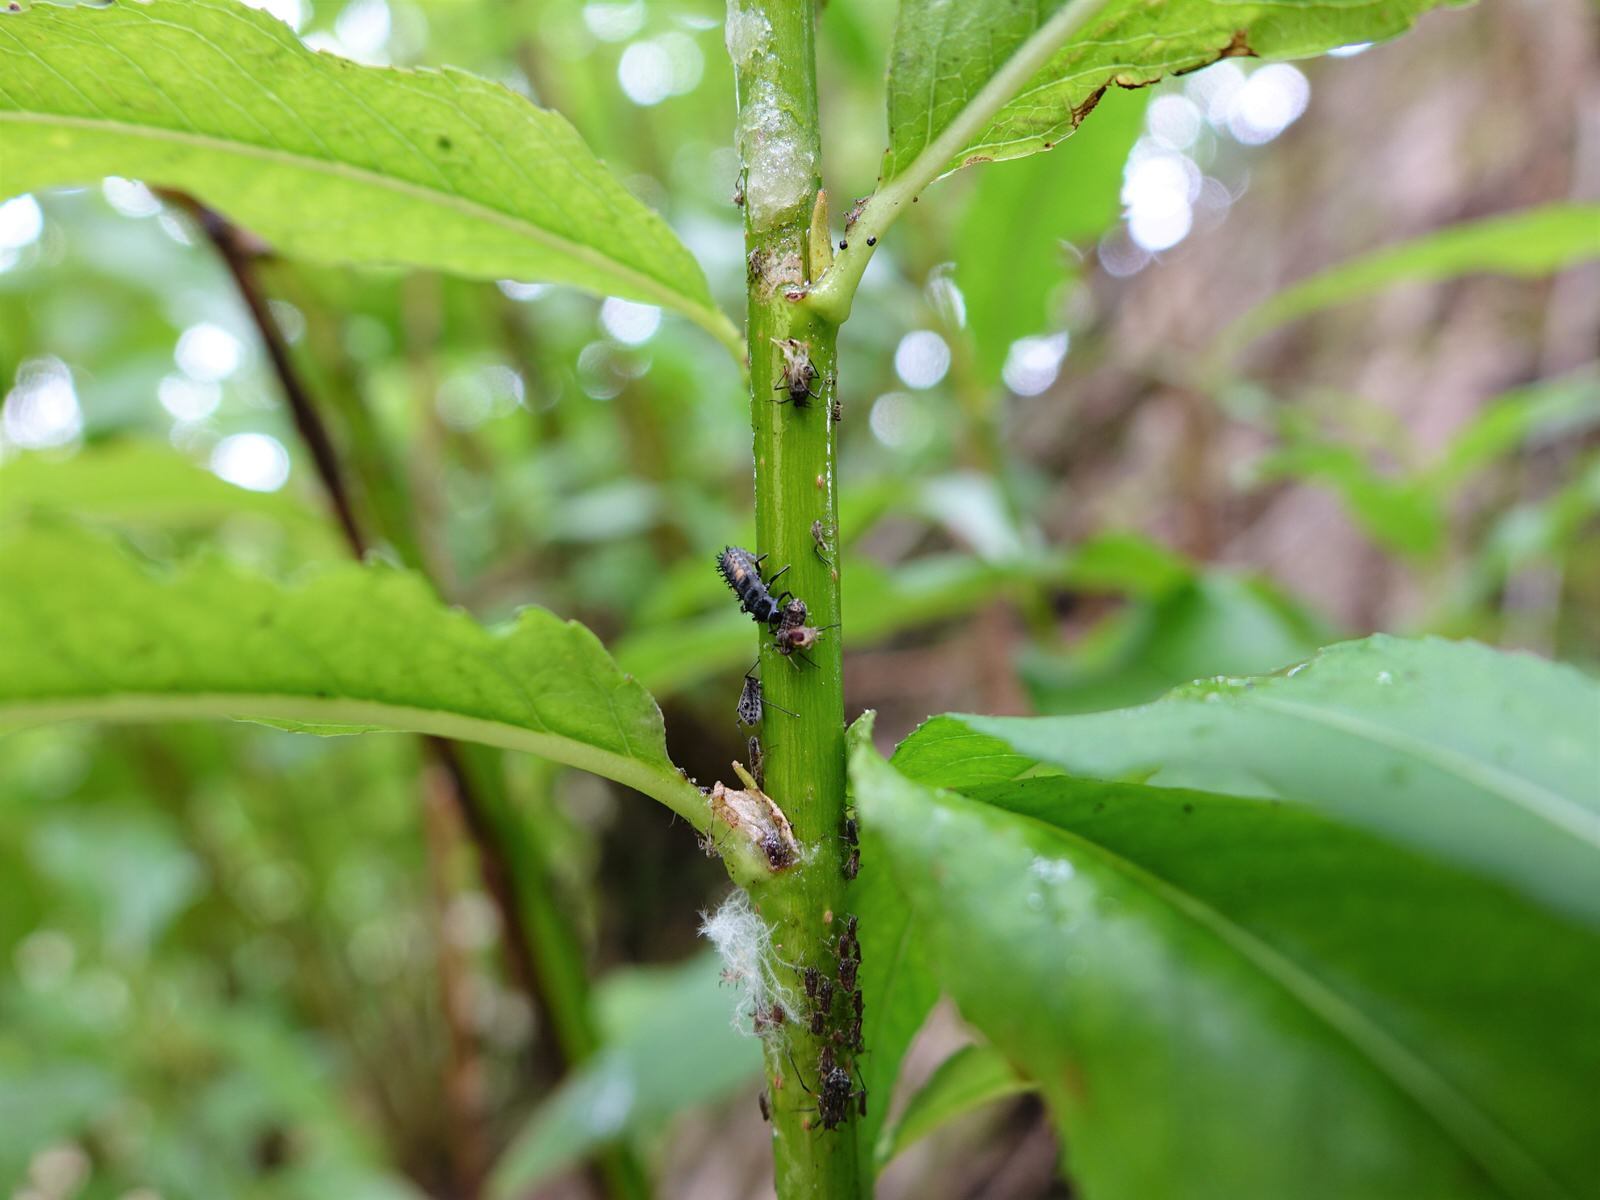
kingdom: Animalia
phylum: Arthropoda
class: Insecta
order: Hemiptera
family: Aphididae
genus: Tuberolachnus
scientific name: Tuberolachnus salignus
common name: Giant willow aphid
